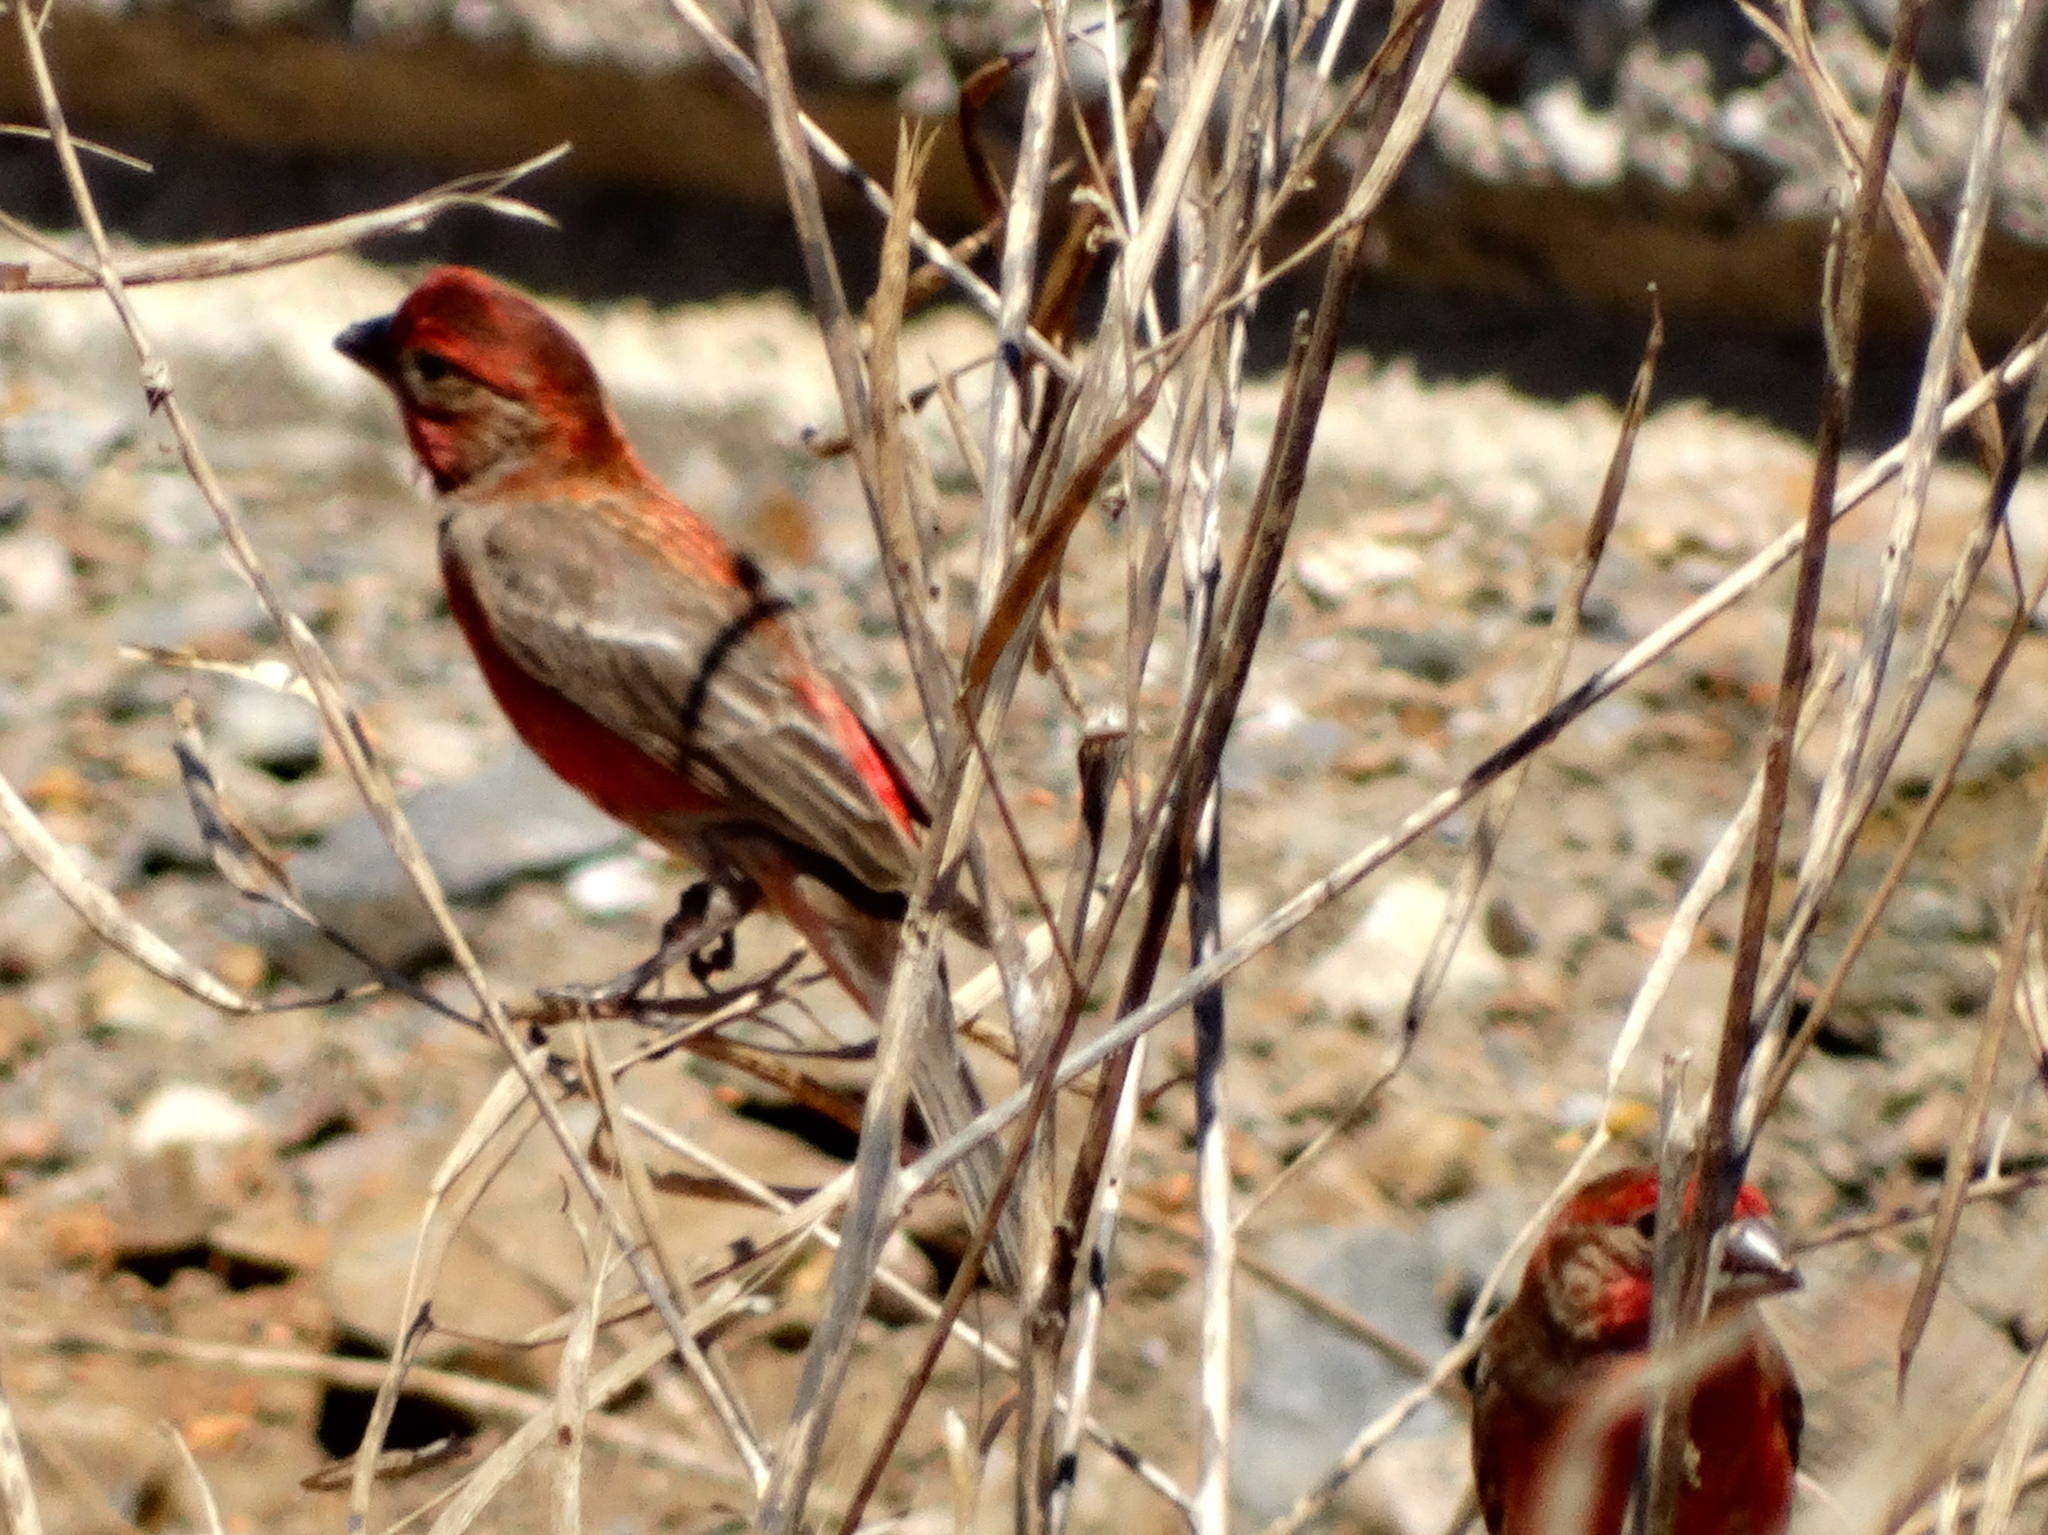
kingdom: Animalia
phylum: Chordata
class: Aves
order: Passeriformes
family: Fringillidae
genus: Haemorhous
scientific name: Haemorhous mexicanus
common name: House finch
